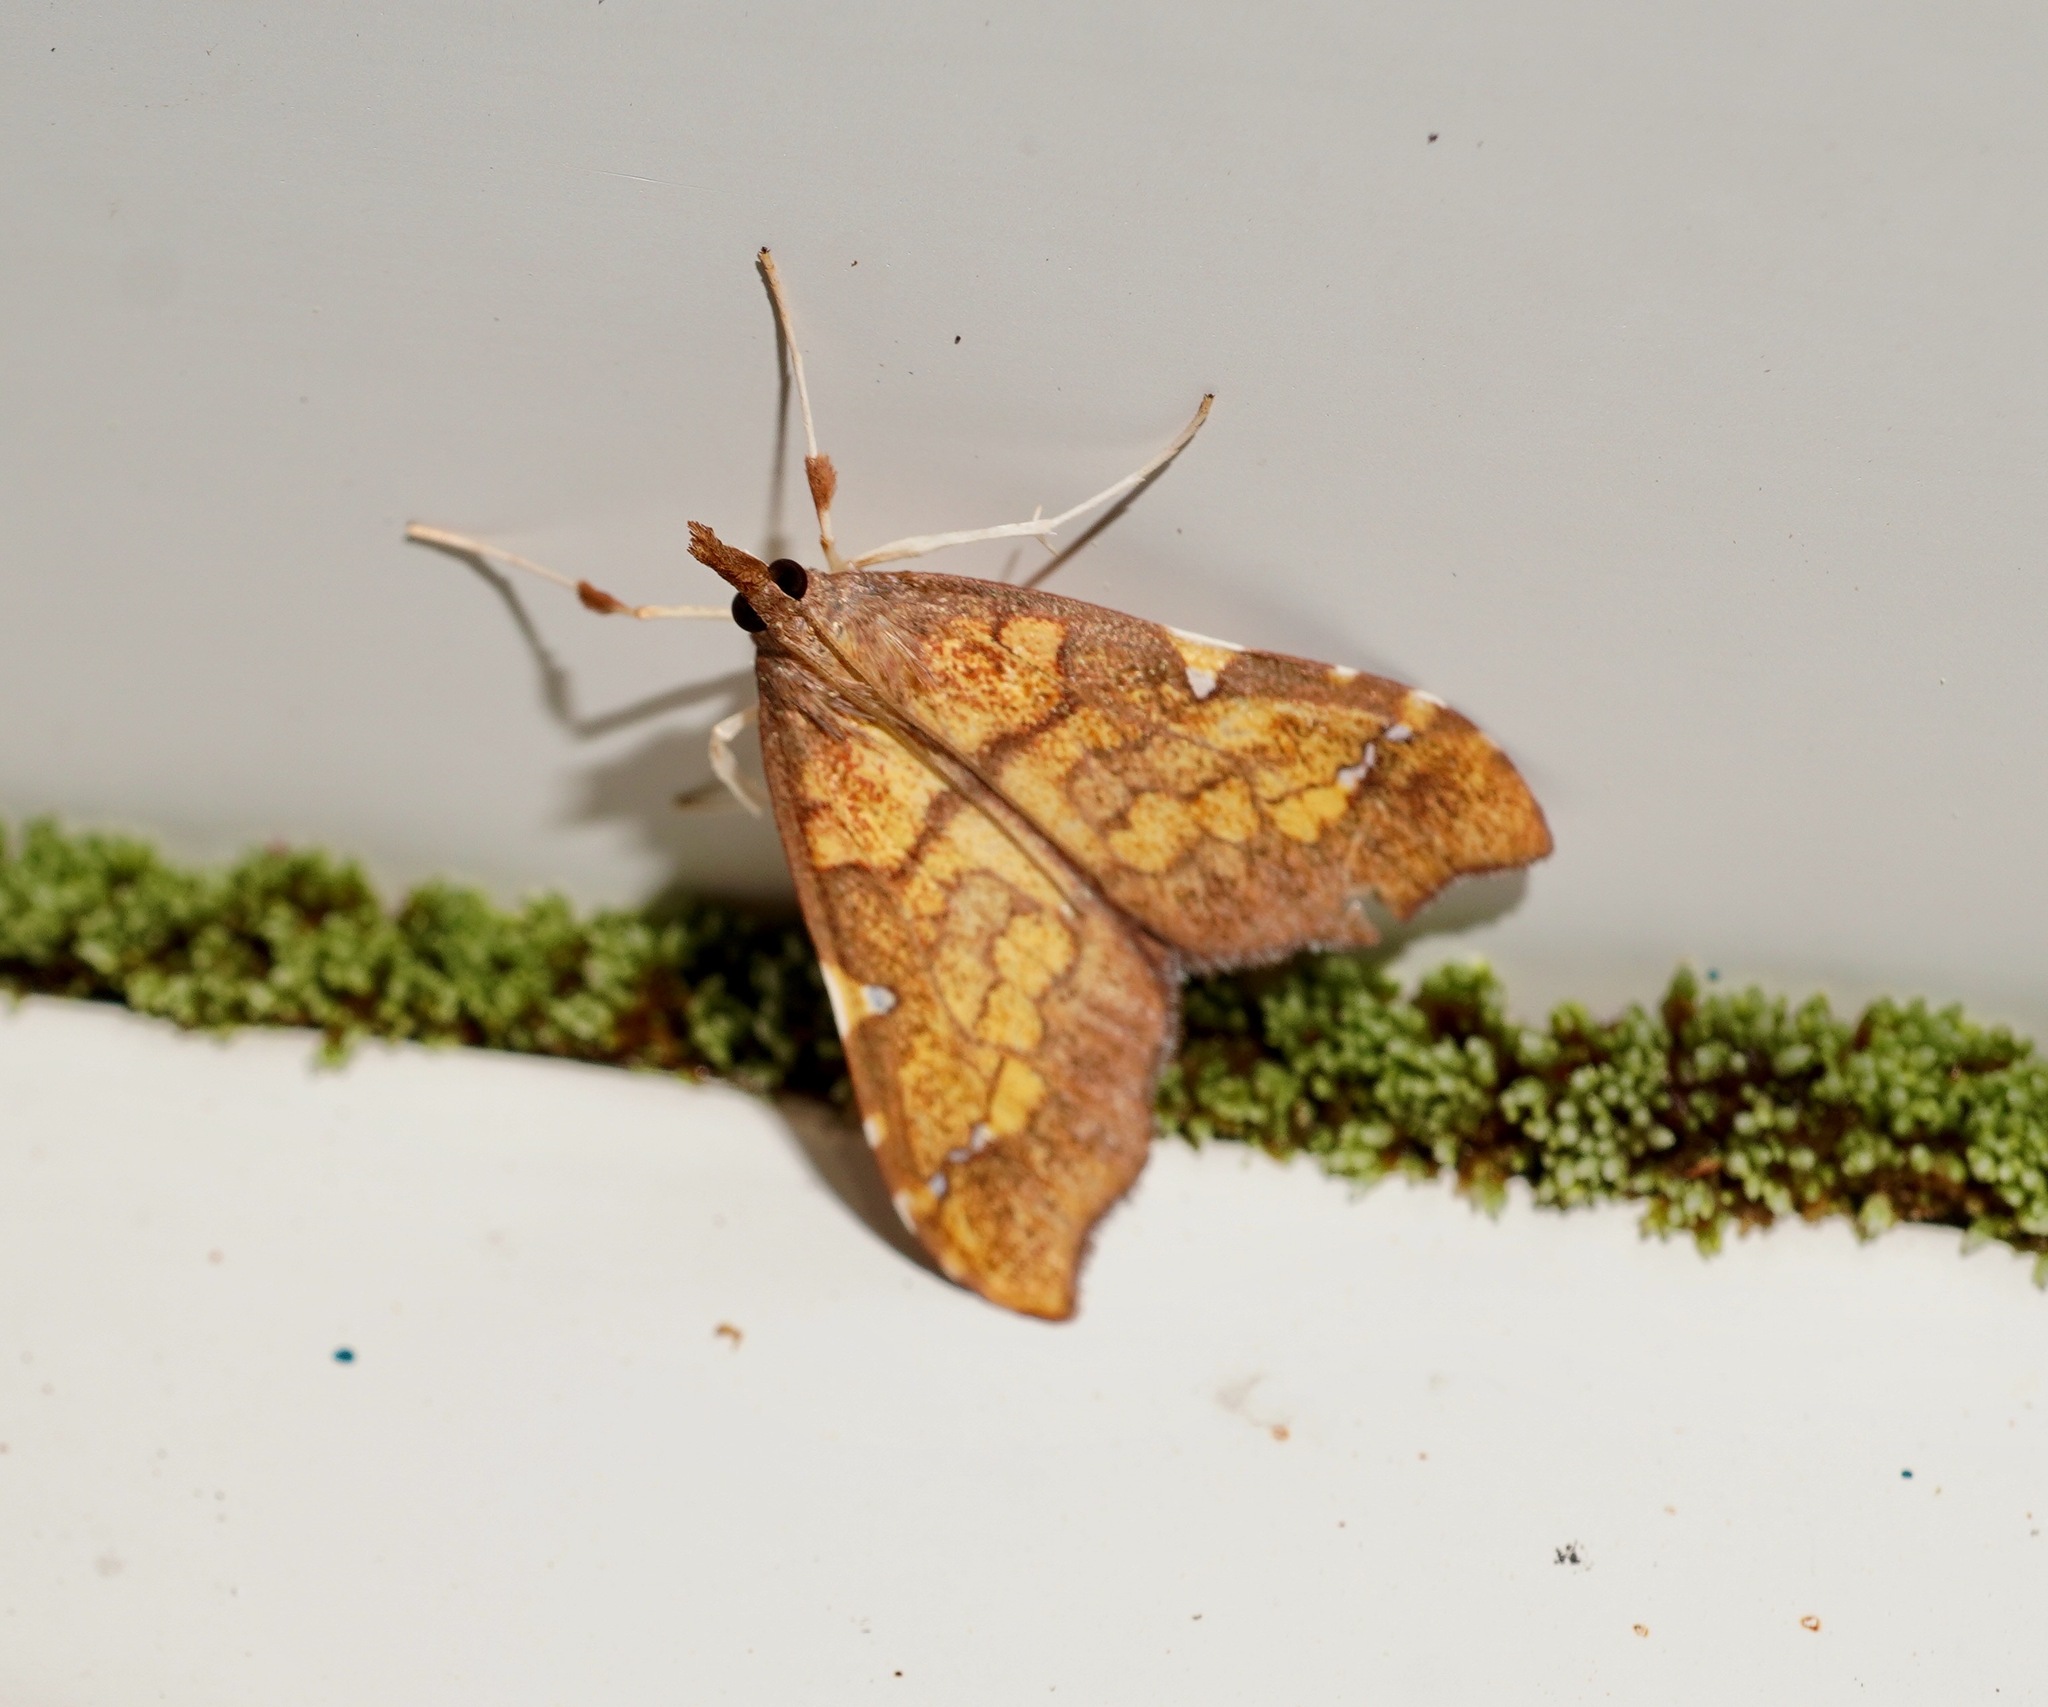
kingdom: Animalia
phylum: Arthropoda
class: Insecta
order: Lepidoptera
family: Crambidae
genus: Deana
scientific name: Deana hybreasalis
